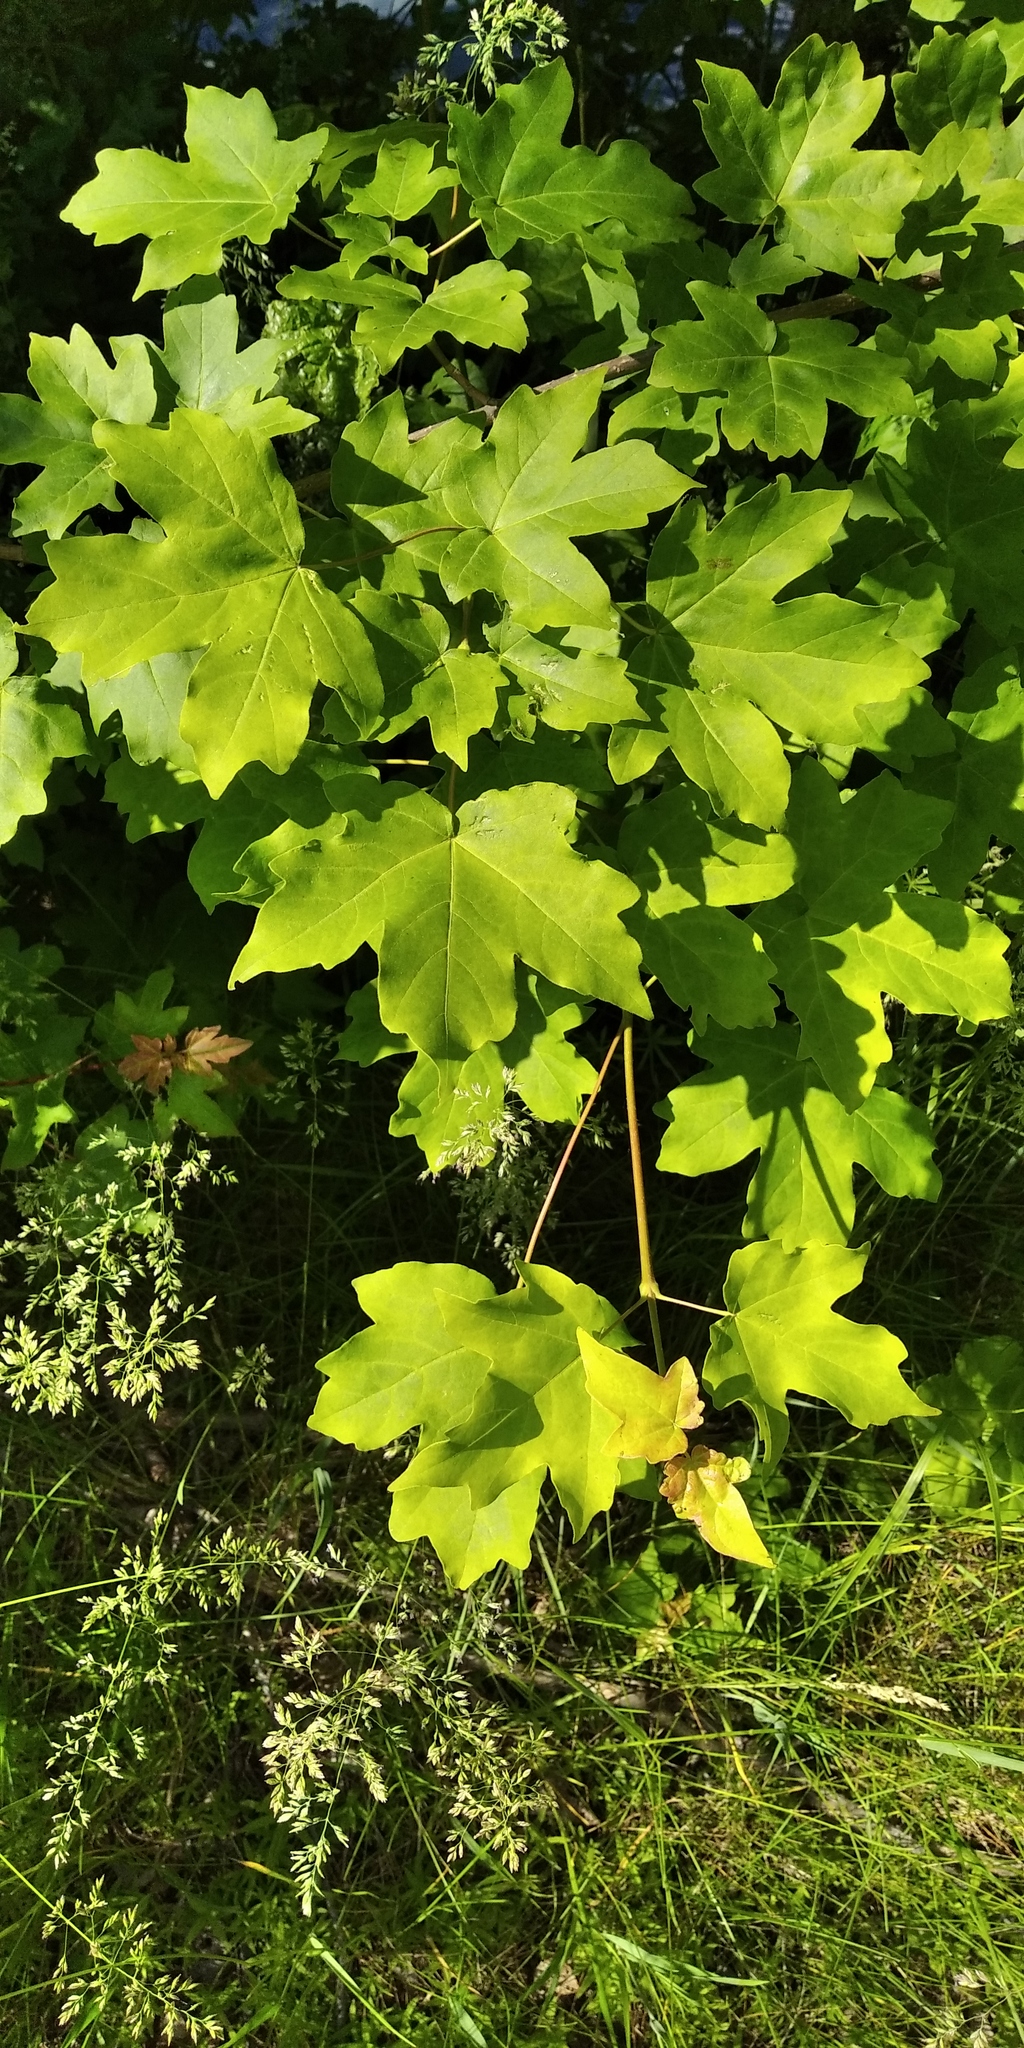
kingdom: Plantae
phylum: Tracheophyta
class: Magnoliopsida
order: Sapindales
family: Sapindaceae
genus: Acer
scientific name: Acer campestre
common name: Field maple
